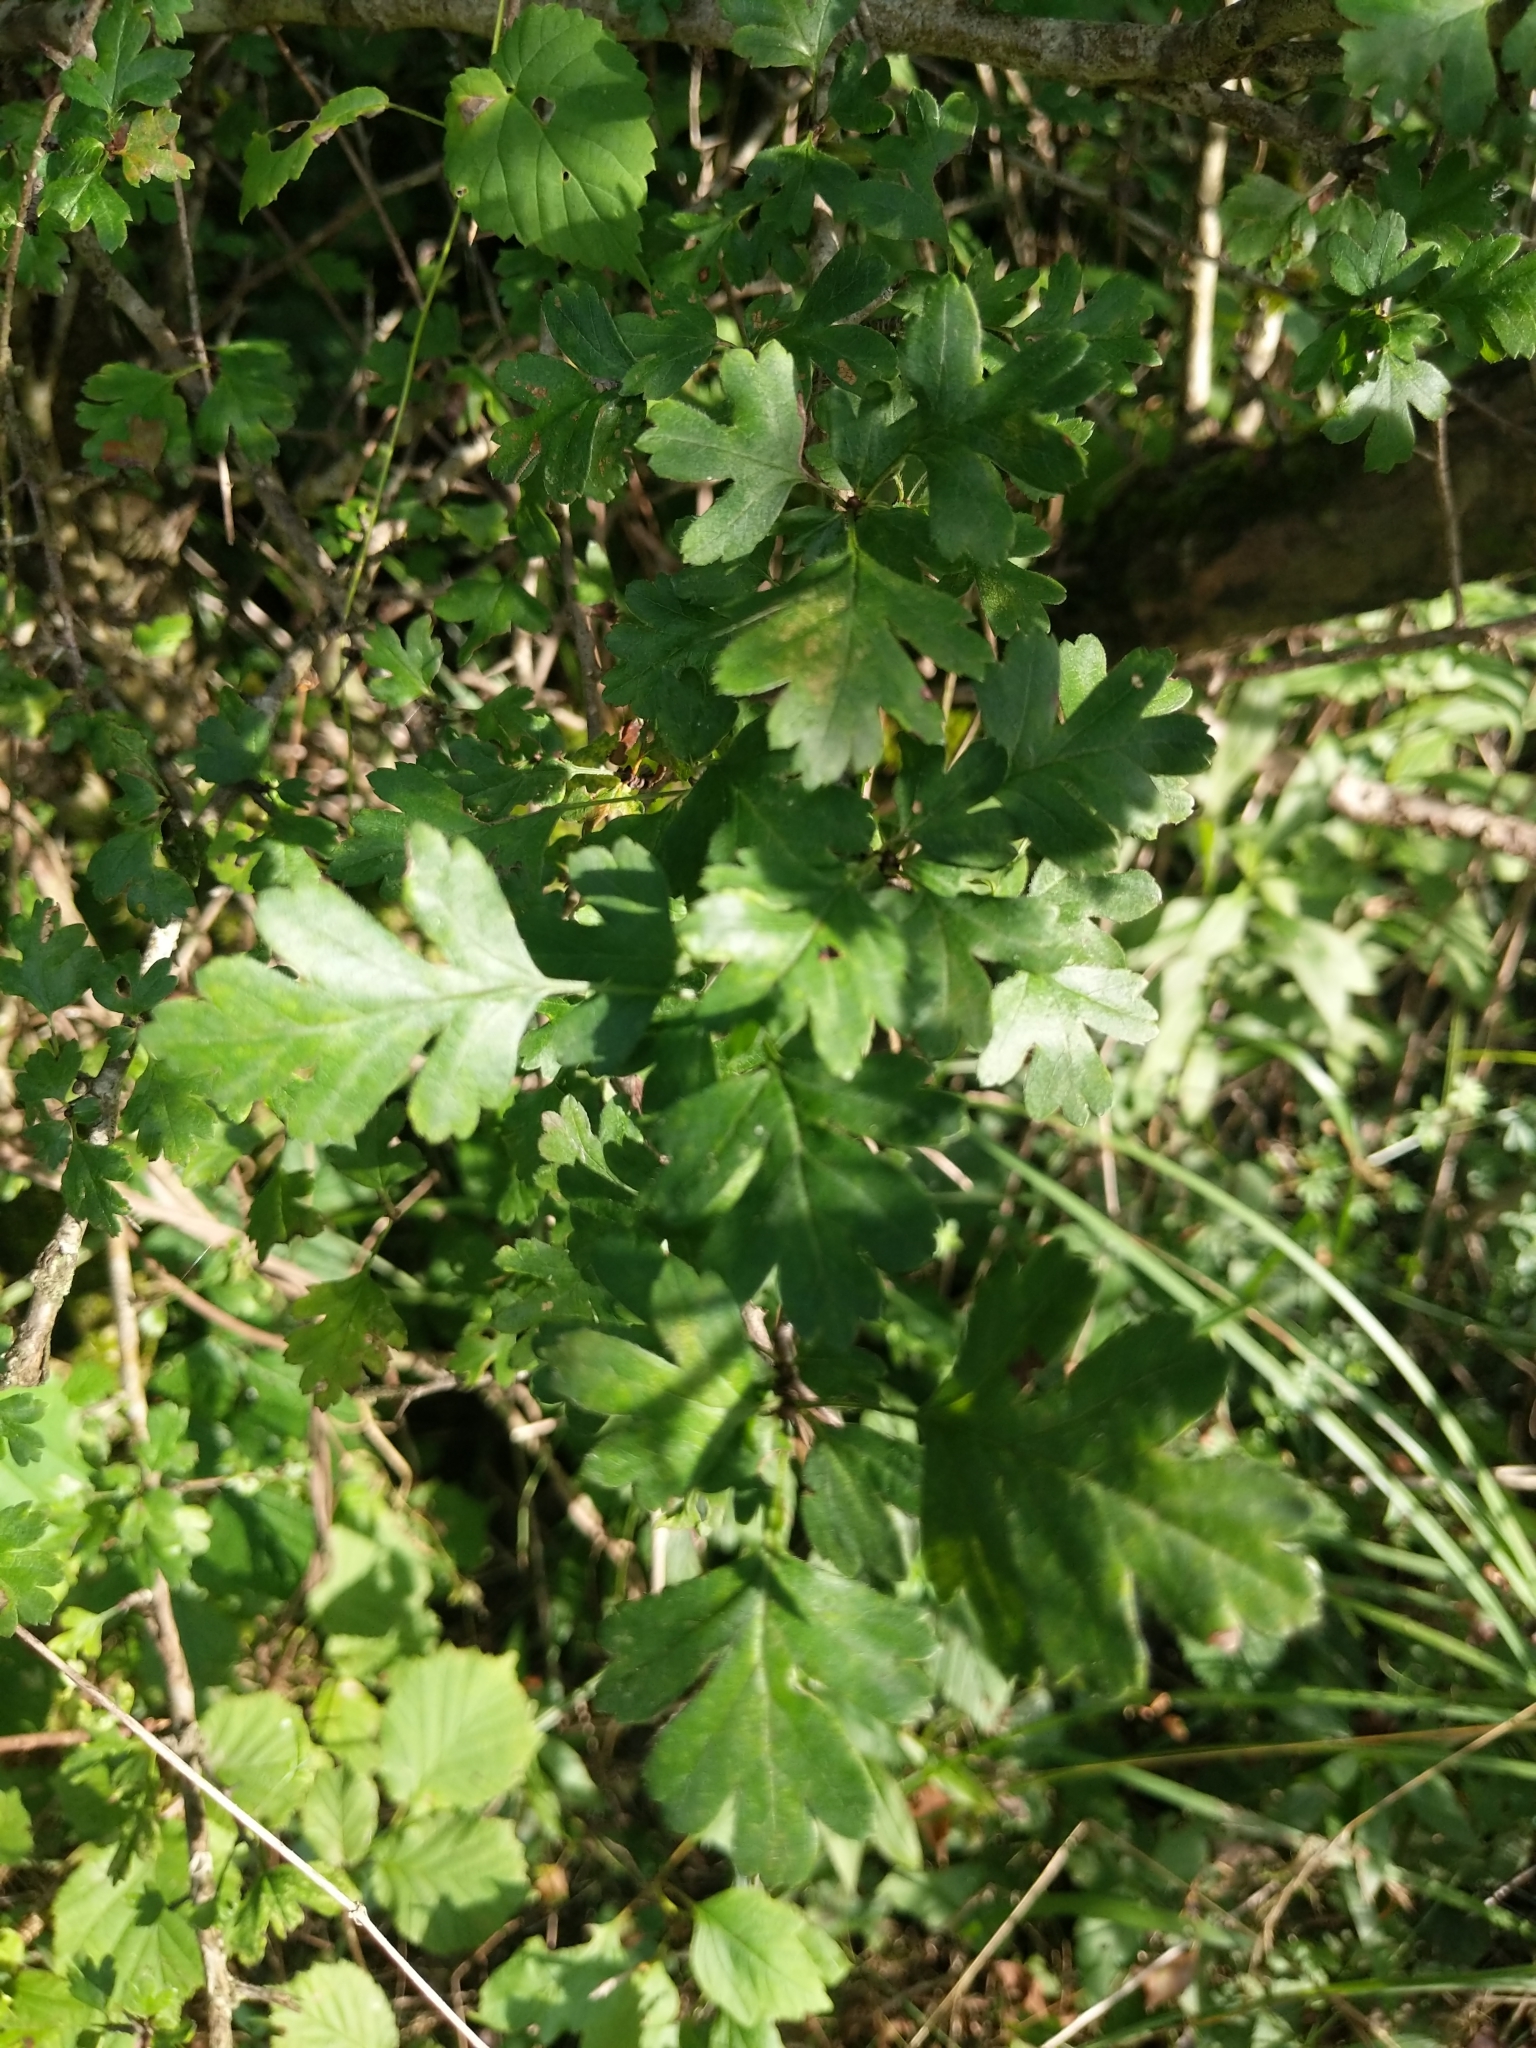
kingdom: Plantae
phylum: Tracheophyta
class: Magnoliopsida
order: Rosales
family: Rosaceae
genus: Crataegus
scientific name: Crataegus monogyna
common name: Hawthorn
